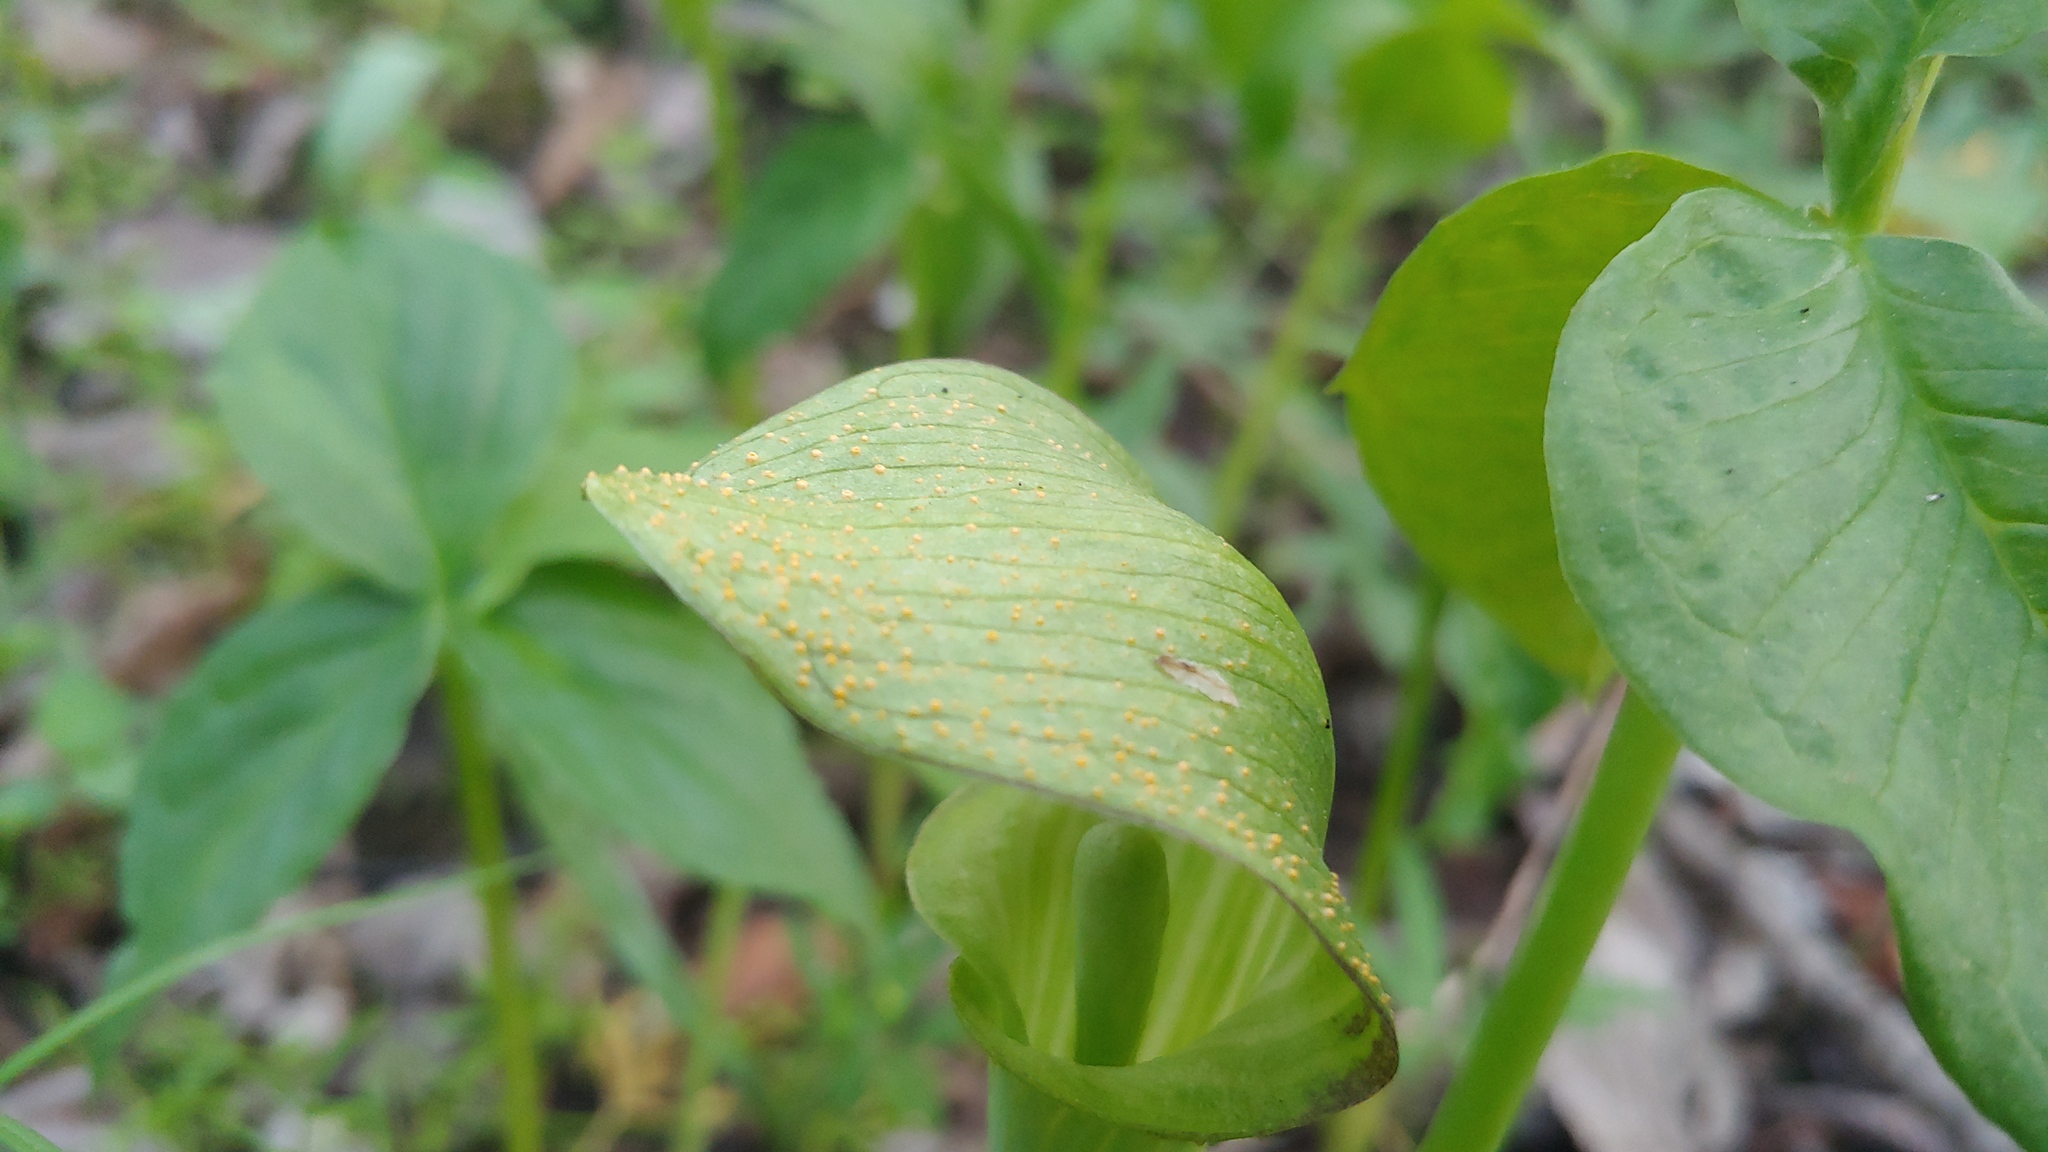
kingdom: Fungi
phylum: Basidiomycota
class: Pucciniomycetes
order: Pucciniales
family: Pucciniaceae
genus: Uromyces
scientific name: Uromyces ari-triphylli
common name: Jack-in-the-pulpit rust
